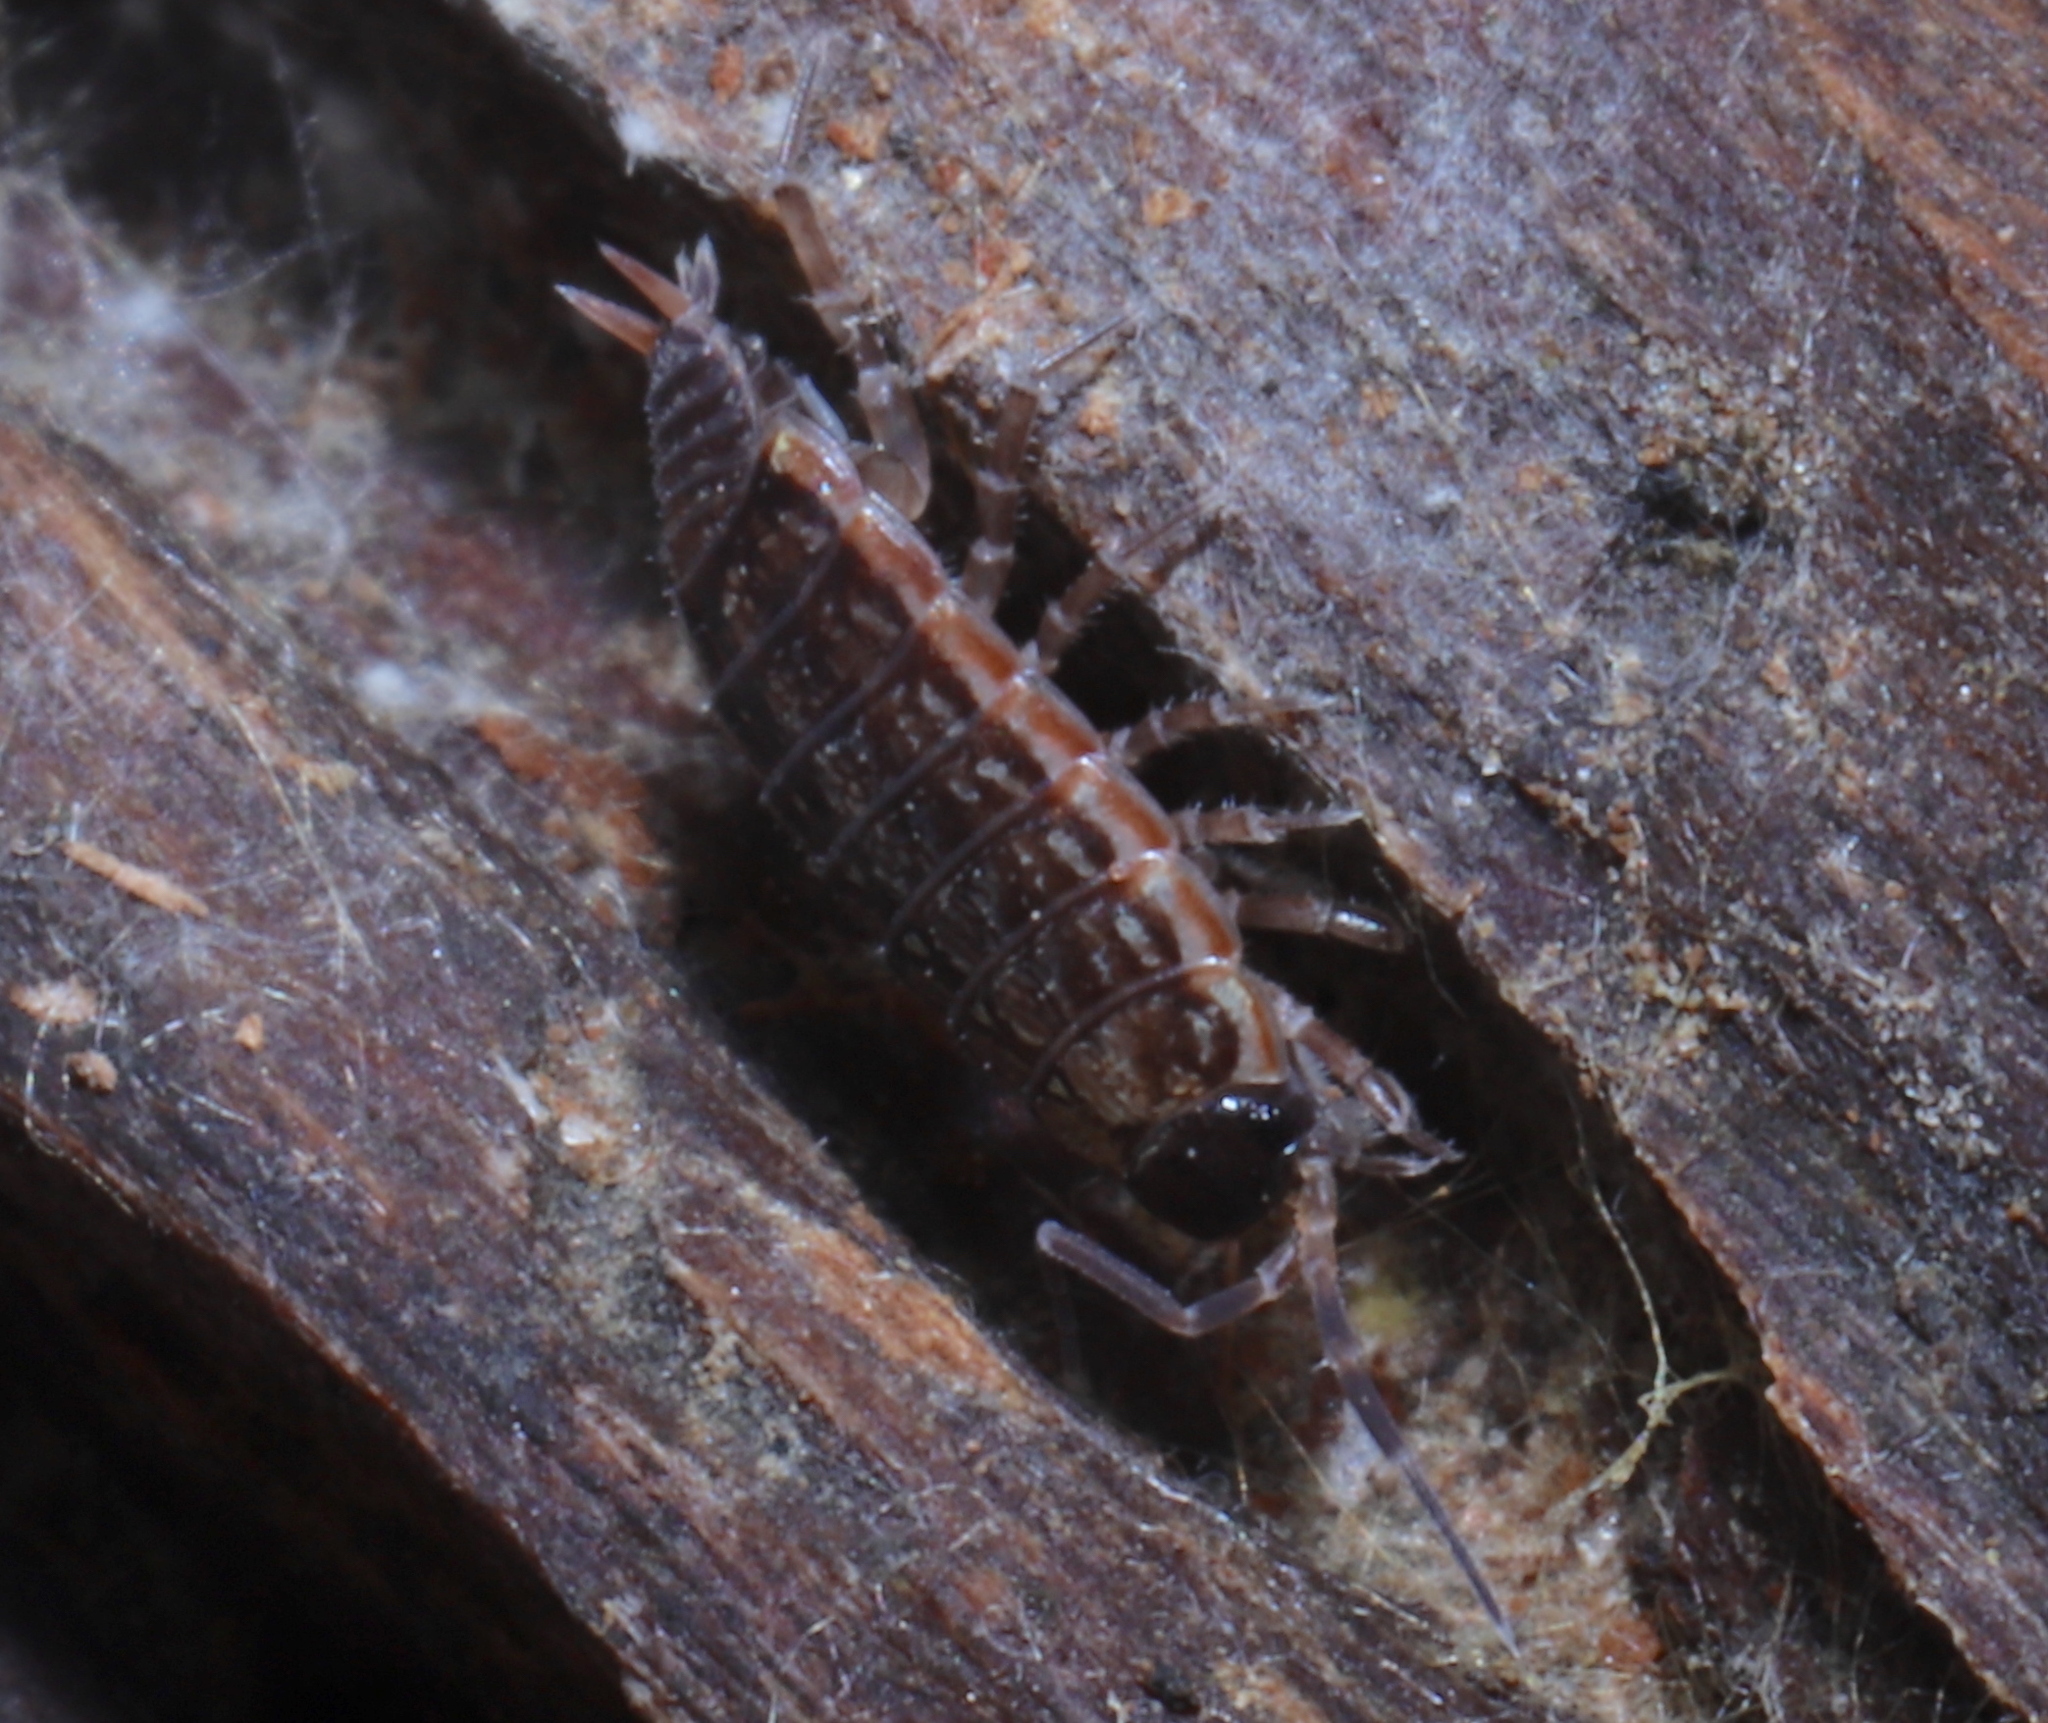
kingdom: Animalia
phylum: Arthropoda
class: Malacostraca
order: Isopoda
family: Philosciidae
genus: Philoscia
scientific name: Philoscia muscorum
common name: Common striped woodlouse
